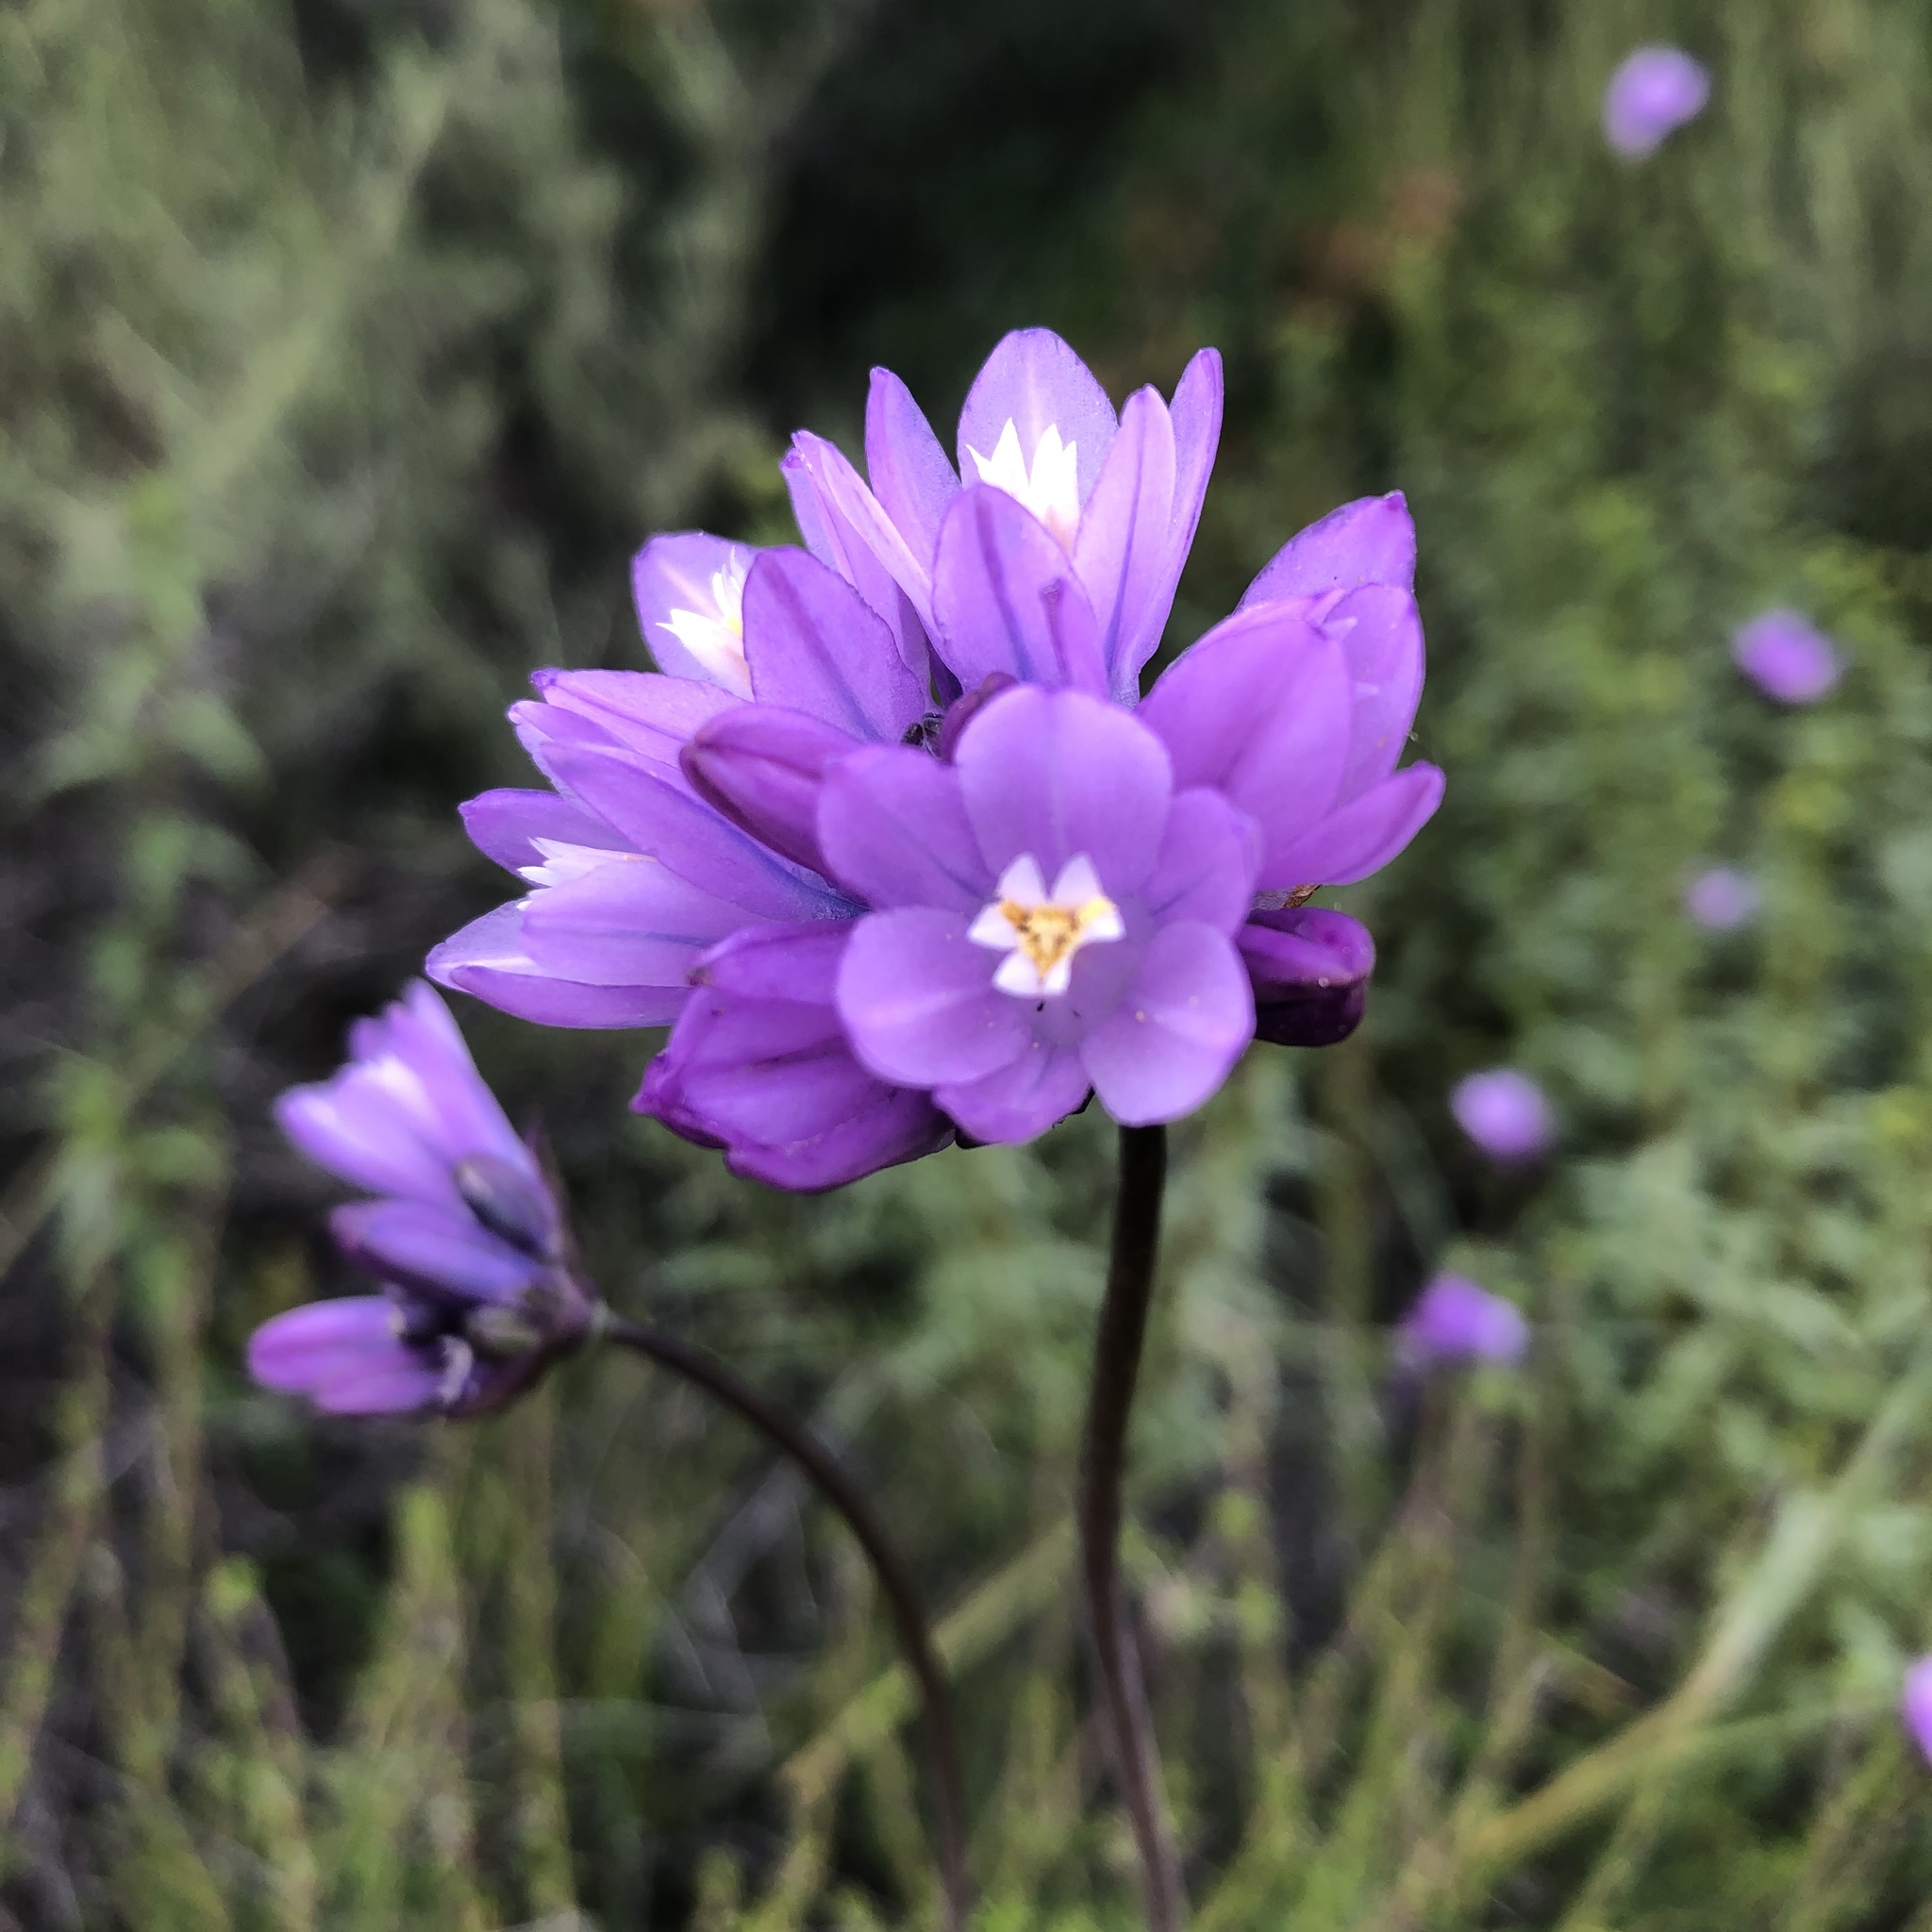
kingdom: Plantae
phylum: Tracheophyta
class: Liliopsida
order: Asparagales
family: Asparagaceae
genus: Dipterostemon
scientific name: Dipterostemon capitatus
